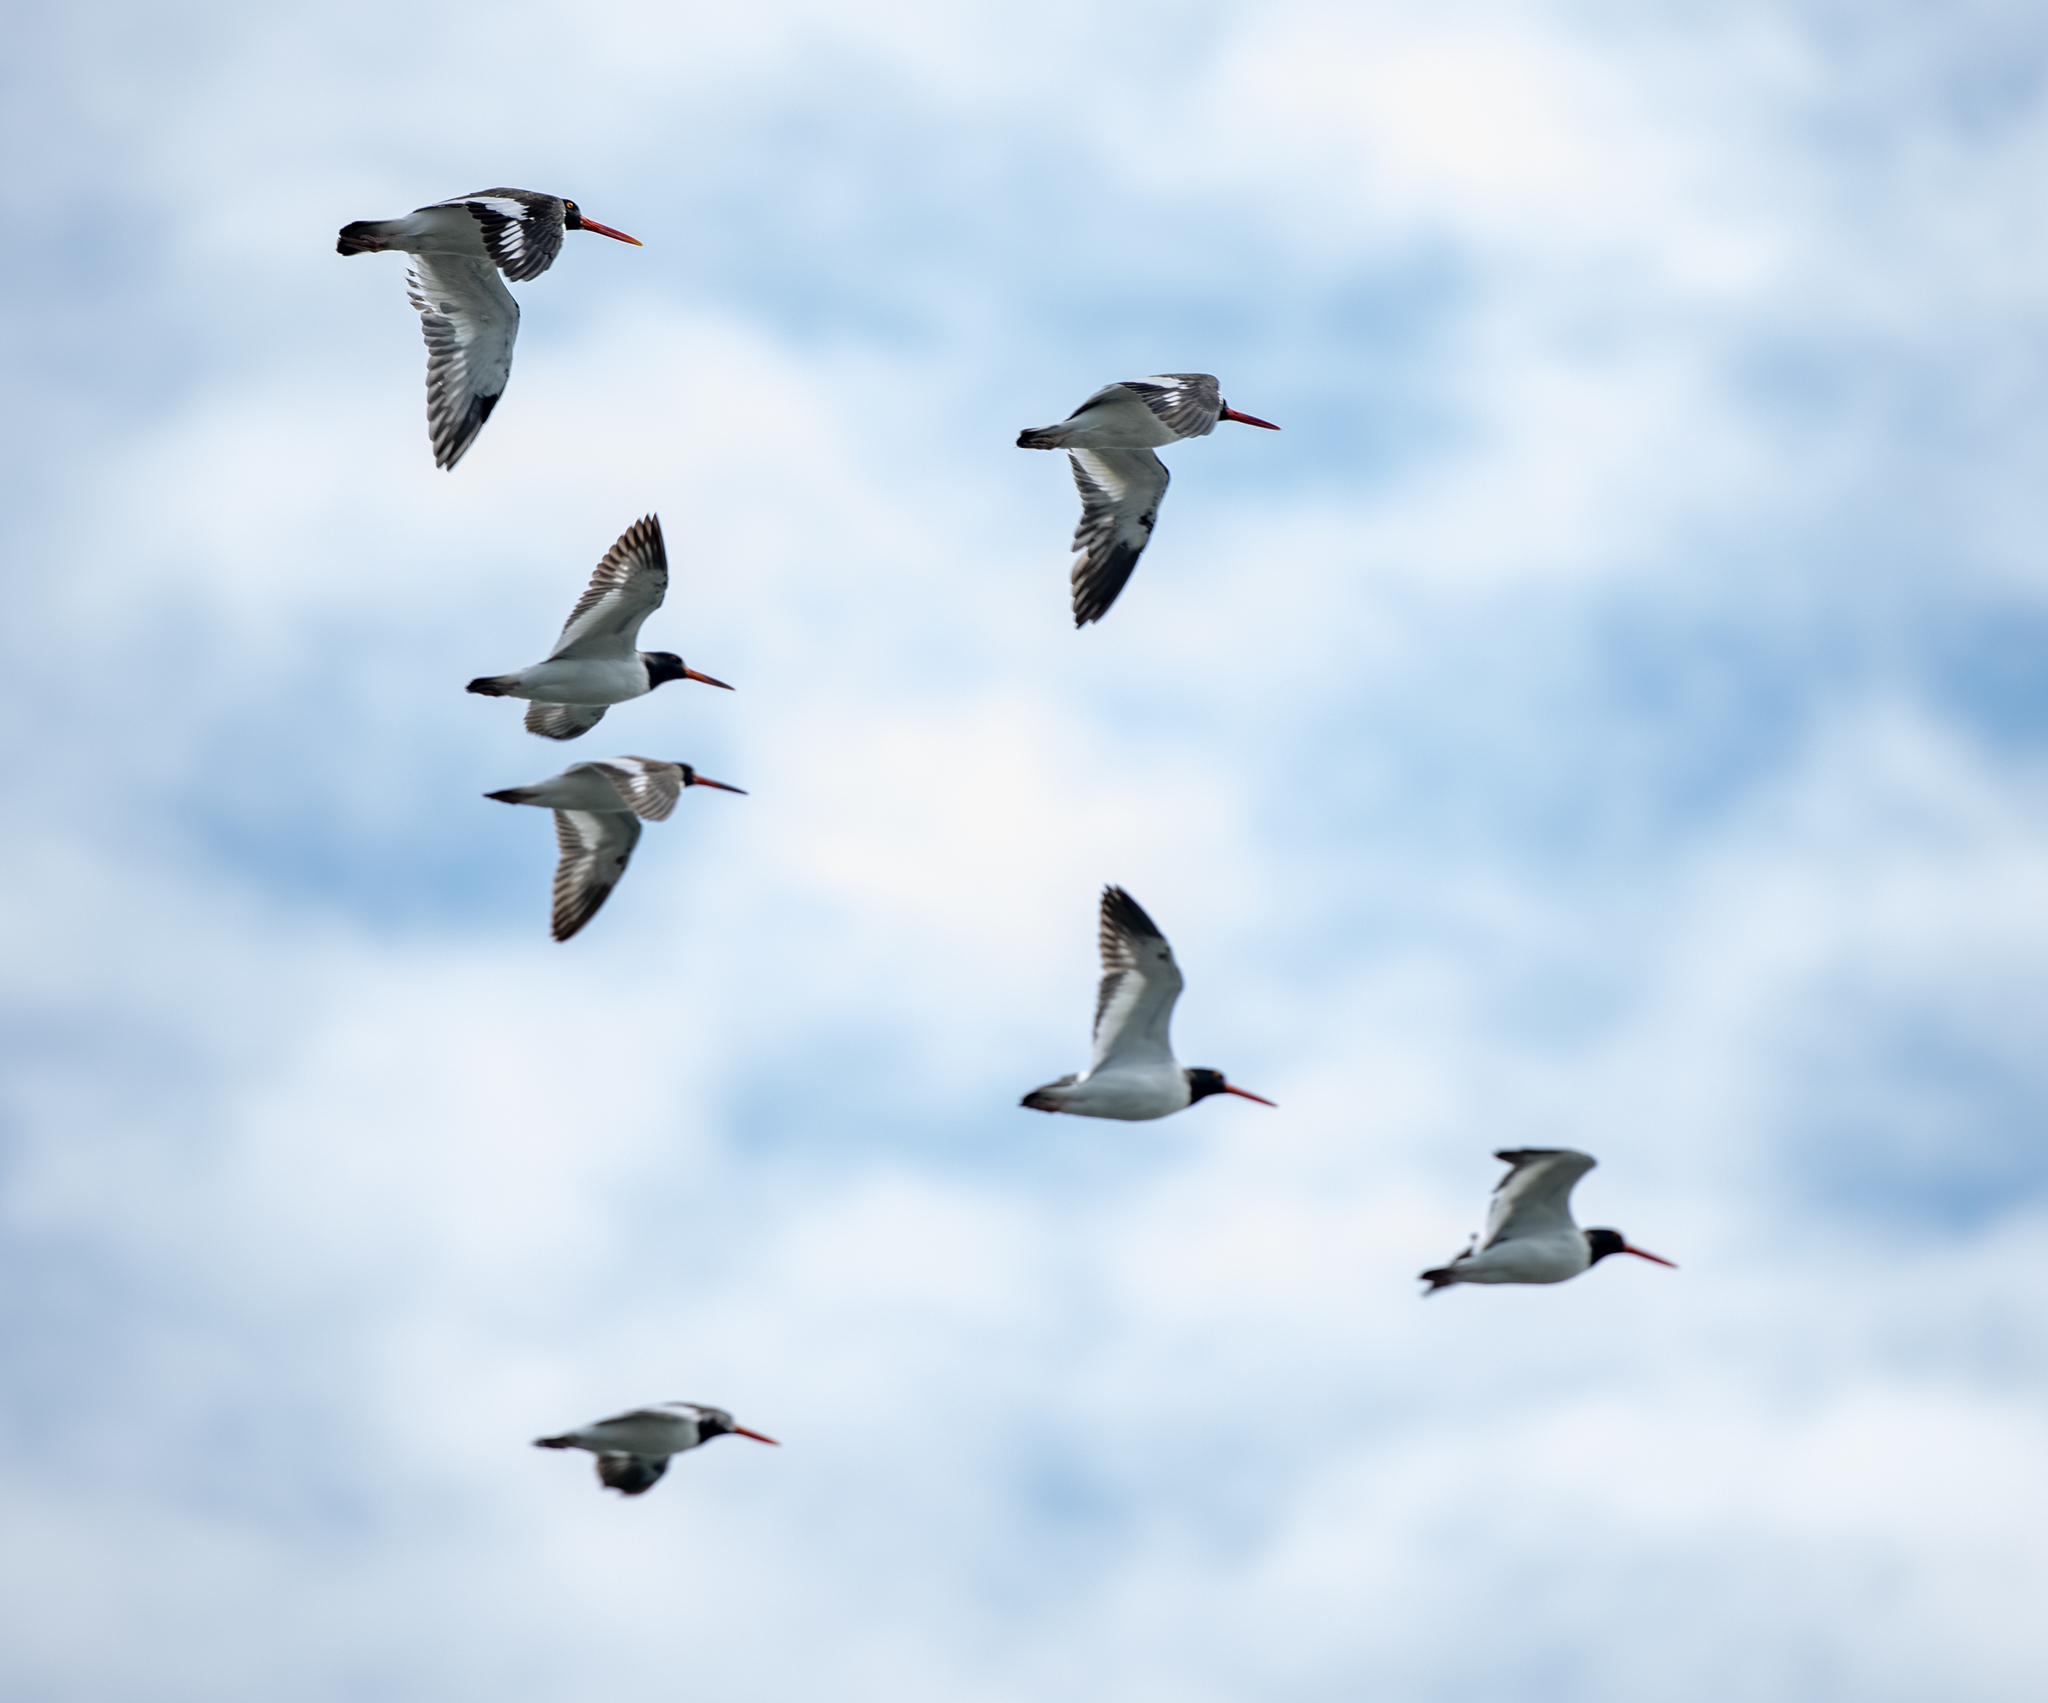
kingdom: Animalia
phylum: Chordata
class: Aves
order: Charadriiformes
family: Haematopodidae
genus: Haematopus
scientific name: Haematopus palliatus
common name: American oystercatcher
